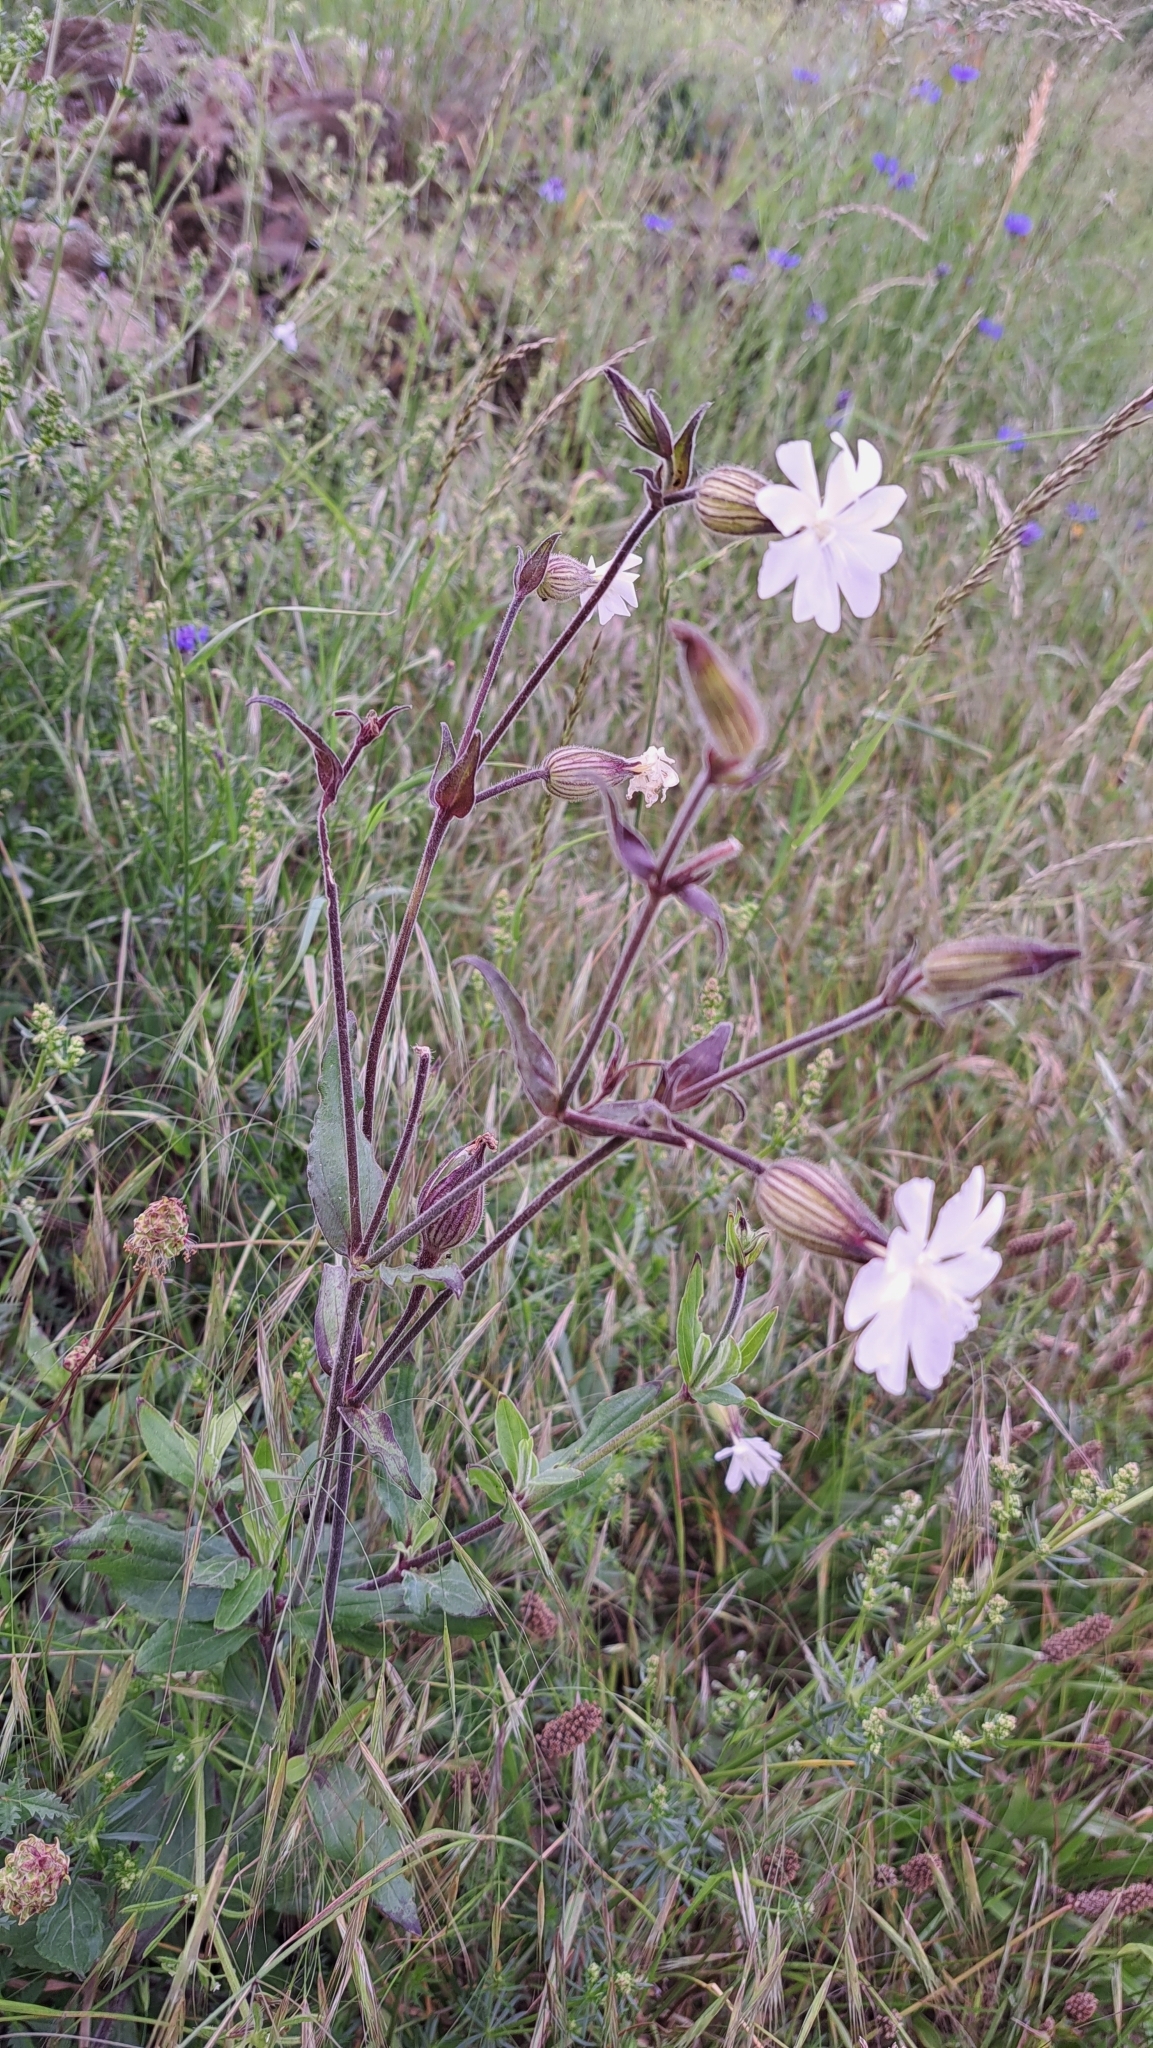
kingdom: Plantae
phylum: Tracheophyta
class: Magnoliopsida
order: Caryophyllales
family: Caryophyllaceae
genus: Silene
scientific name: Silene latifolia
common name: White campion
